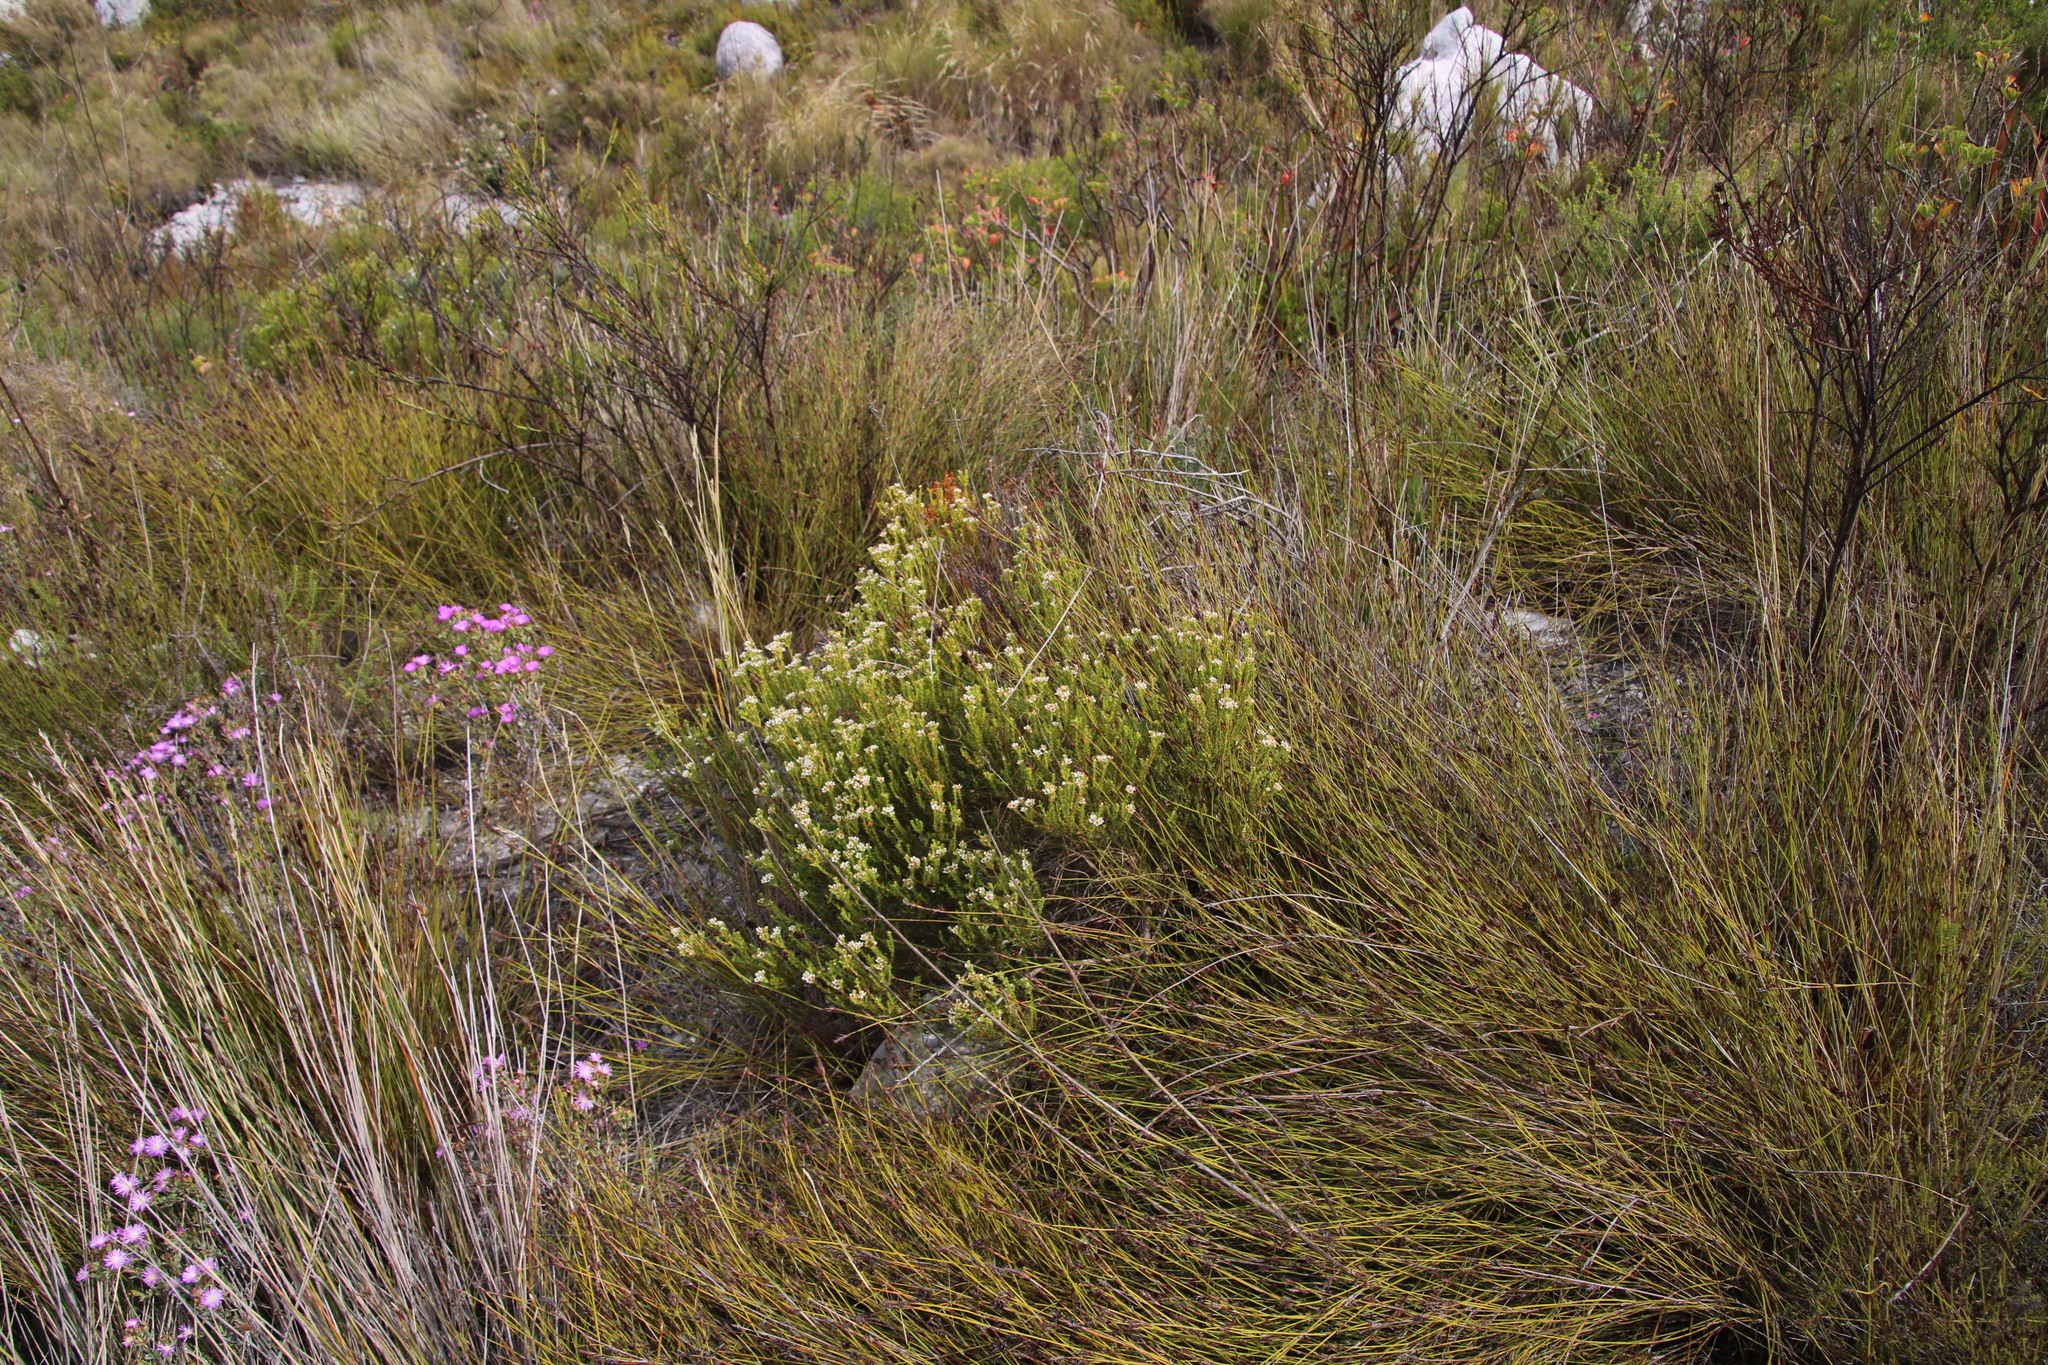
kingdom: Plantae
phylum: Tracheophyta
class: Magnoliopsida
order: Sapindales
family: Rutaceae
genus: Diosma
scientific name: Diosma oppositifolia
